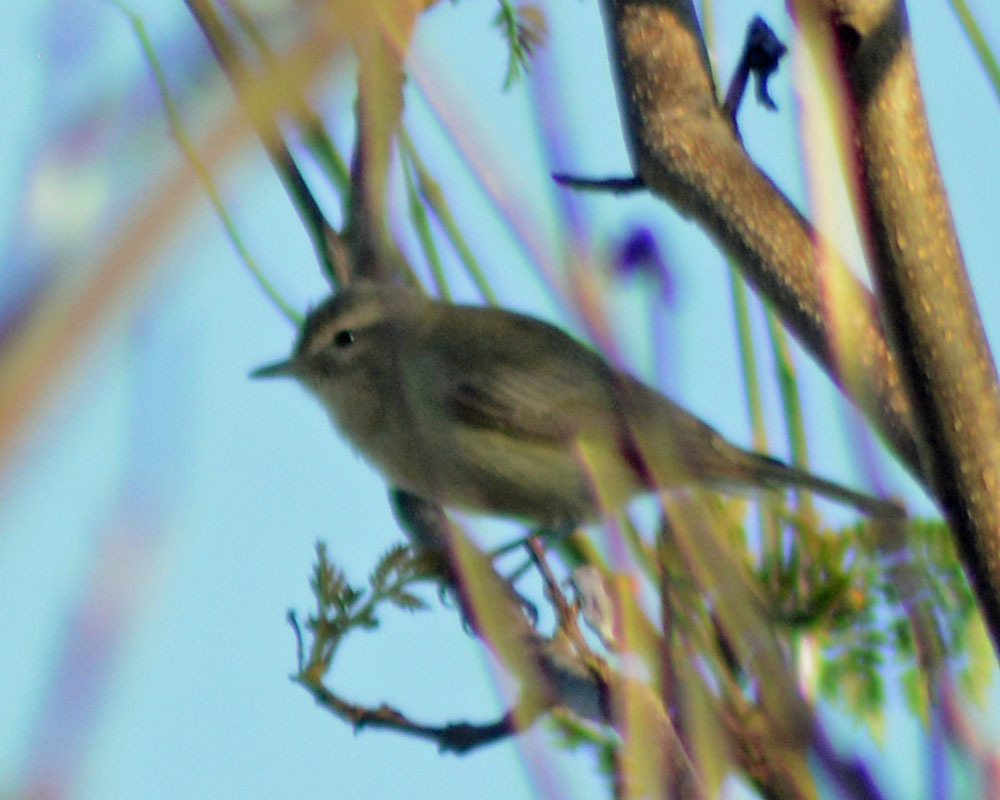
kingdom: Animalia
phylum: Chordata
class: Aves
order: Passeriformes
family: Vireonidae
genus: Vireo
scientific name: Vireo gilvus
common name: Warbling vireo
